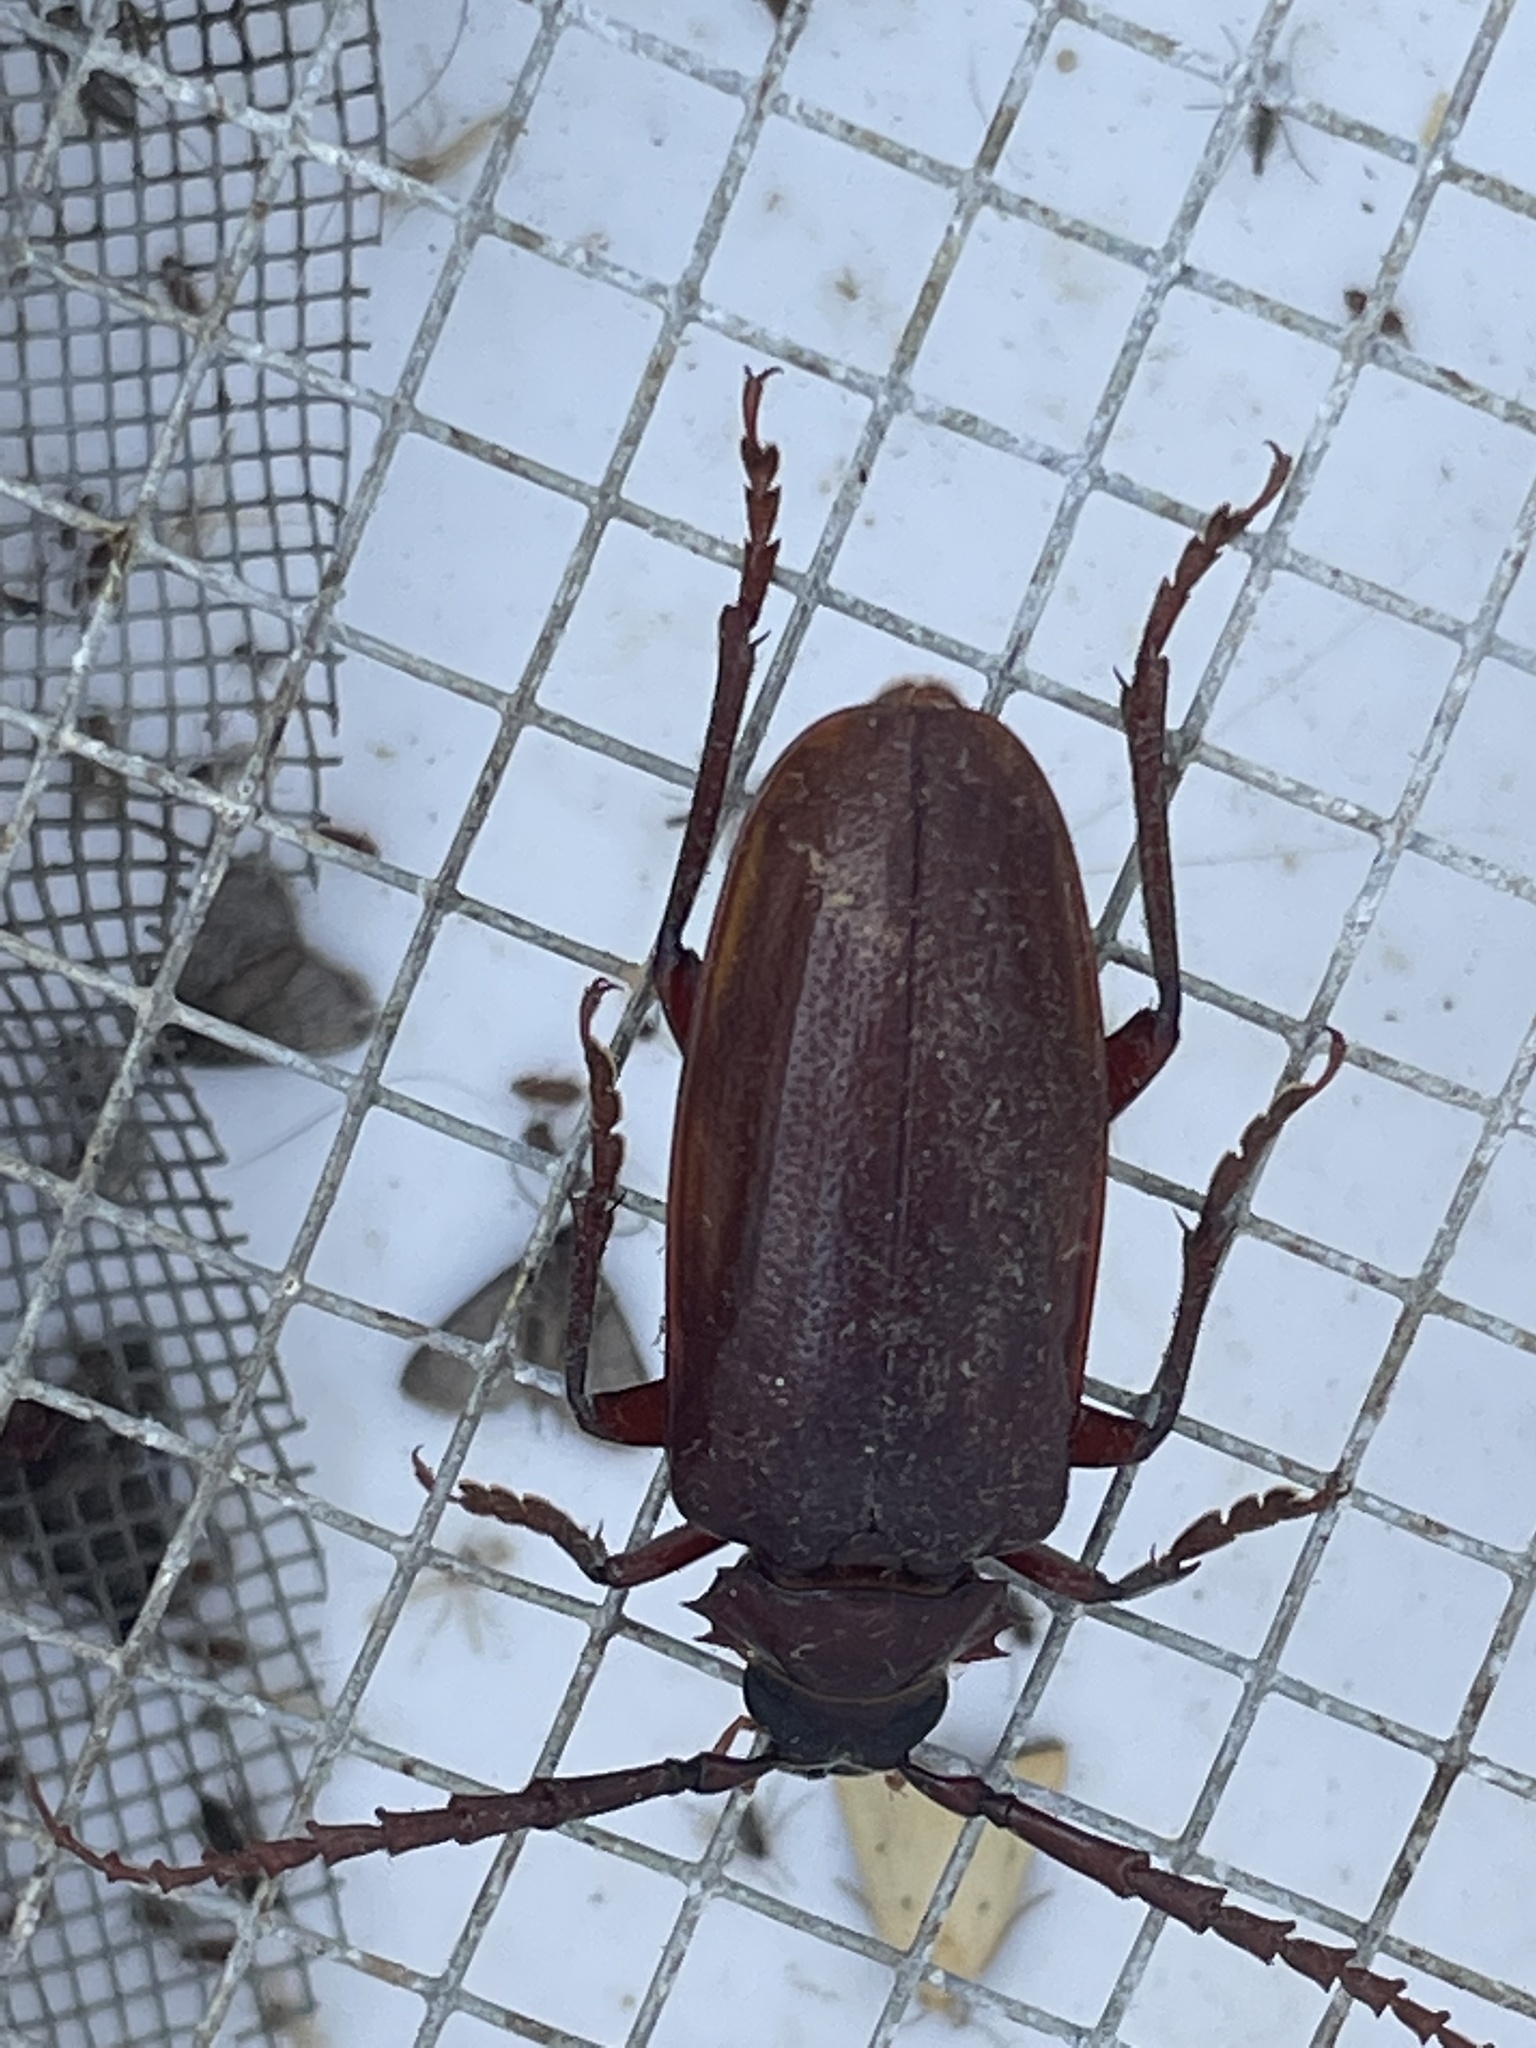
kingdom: Animalia
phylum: Arthropoda
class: Insecta
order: Coleoptera
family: Cerambycidae
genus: Prionus
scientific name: Prionus pocularis
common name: Tooth-necked longhorn beetle
